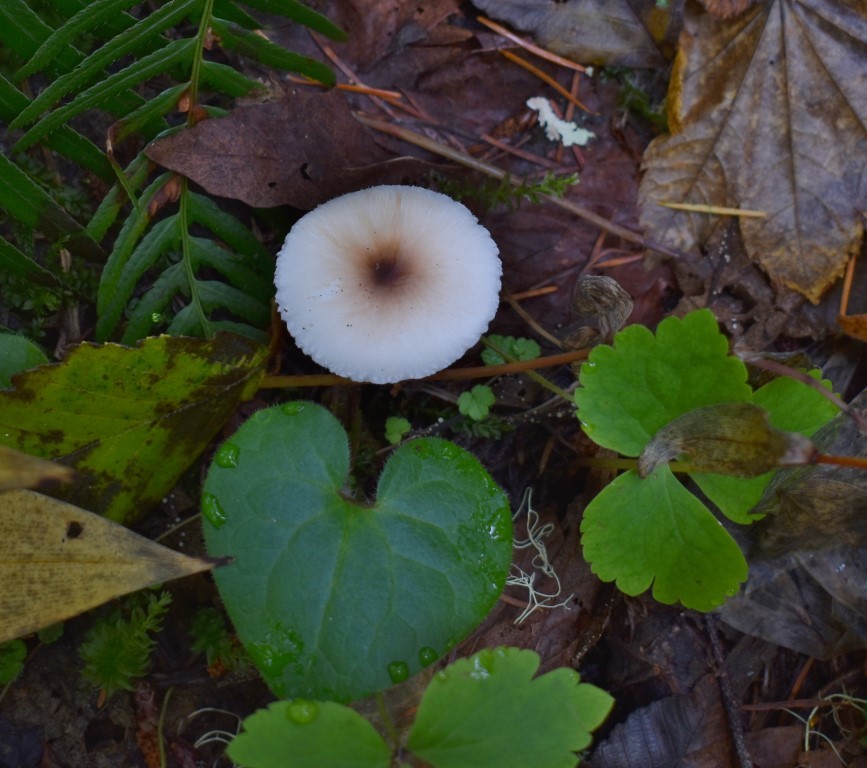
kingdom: Fungi
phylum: Basidiomycota
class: Agaricomycetes
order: Agaricales
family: Agaricaceae
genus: Lepiota
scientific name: Lepiota rubrotinctoides
